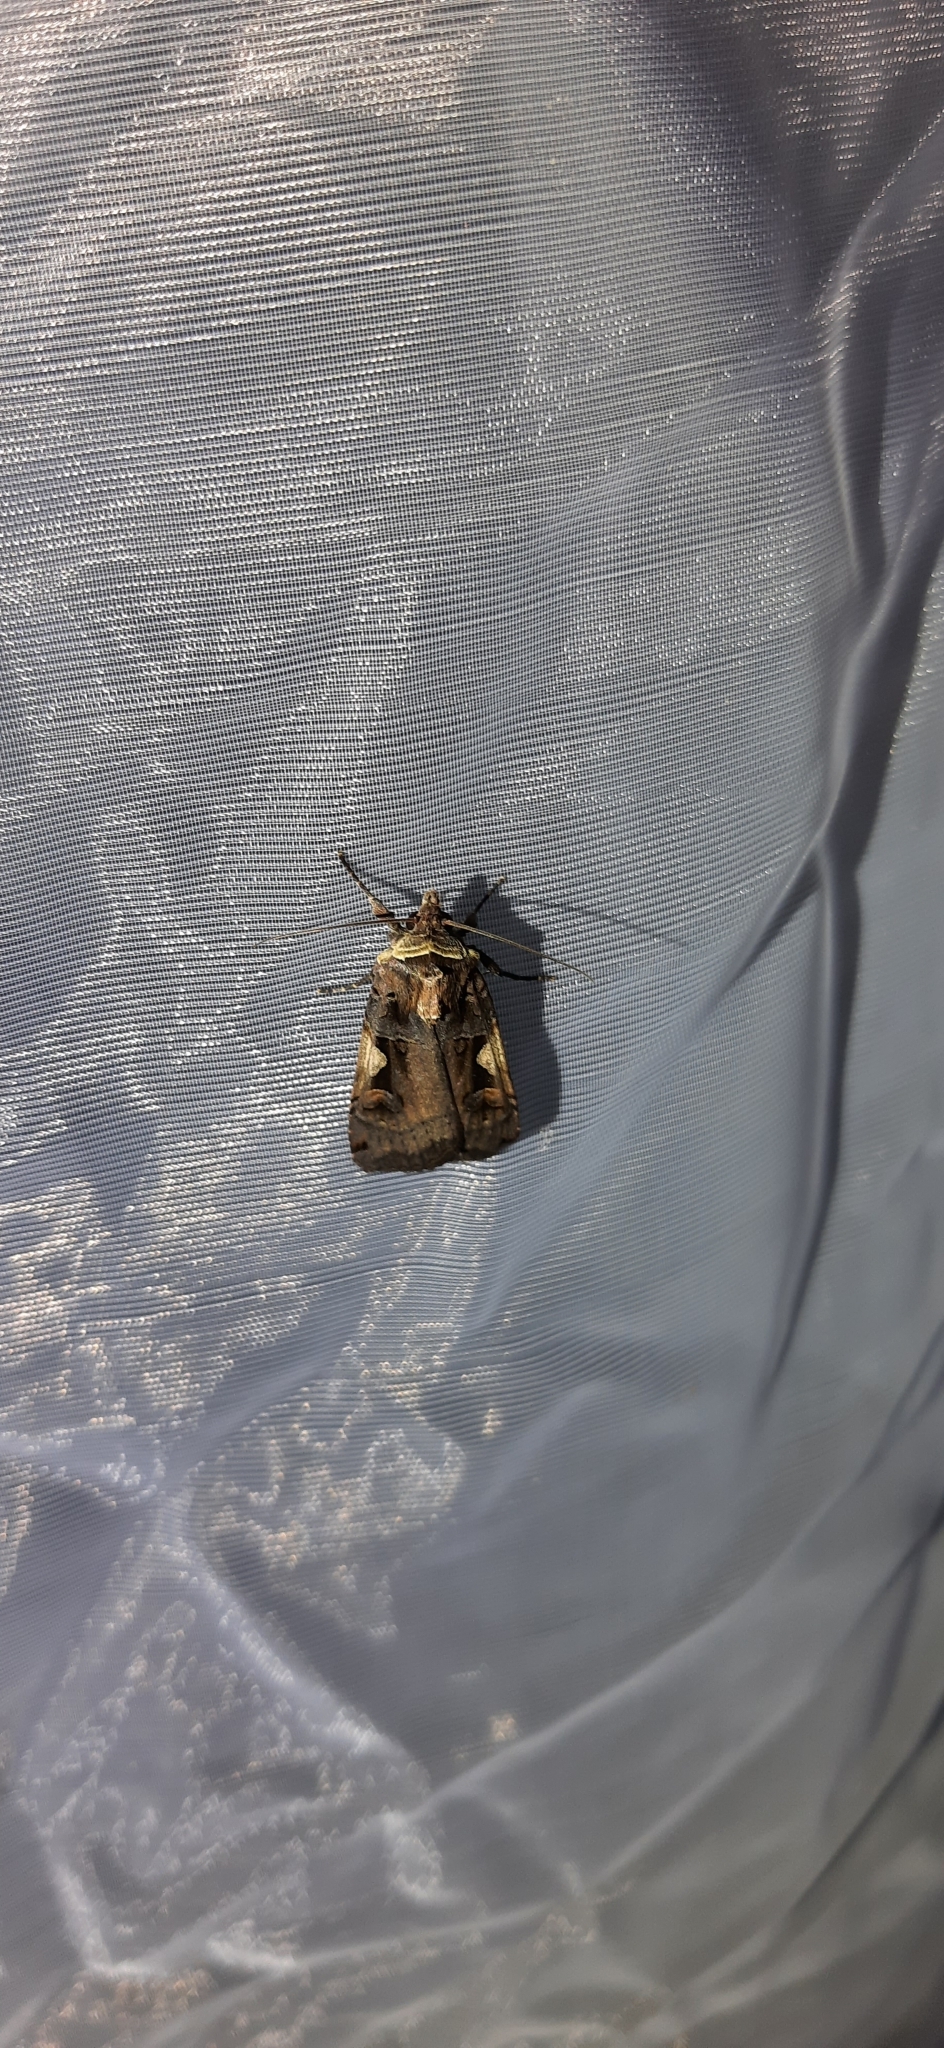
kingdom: Animalia
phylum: Arthropoda
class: Insecta
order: Lepidoptera
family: Noctuidae
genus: Xestia
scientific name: Xestia c-nigrum
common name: Setaceous hebrew character
